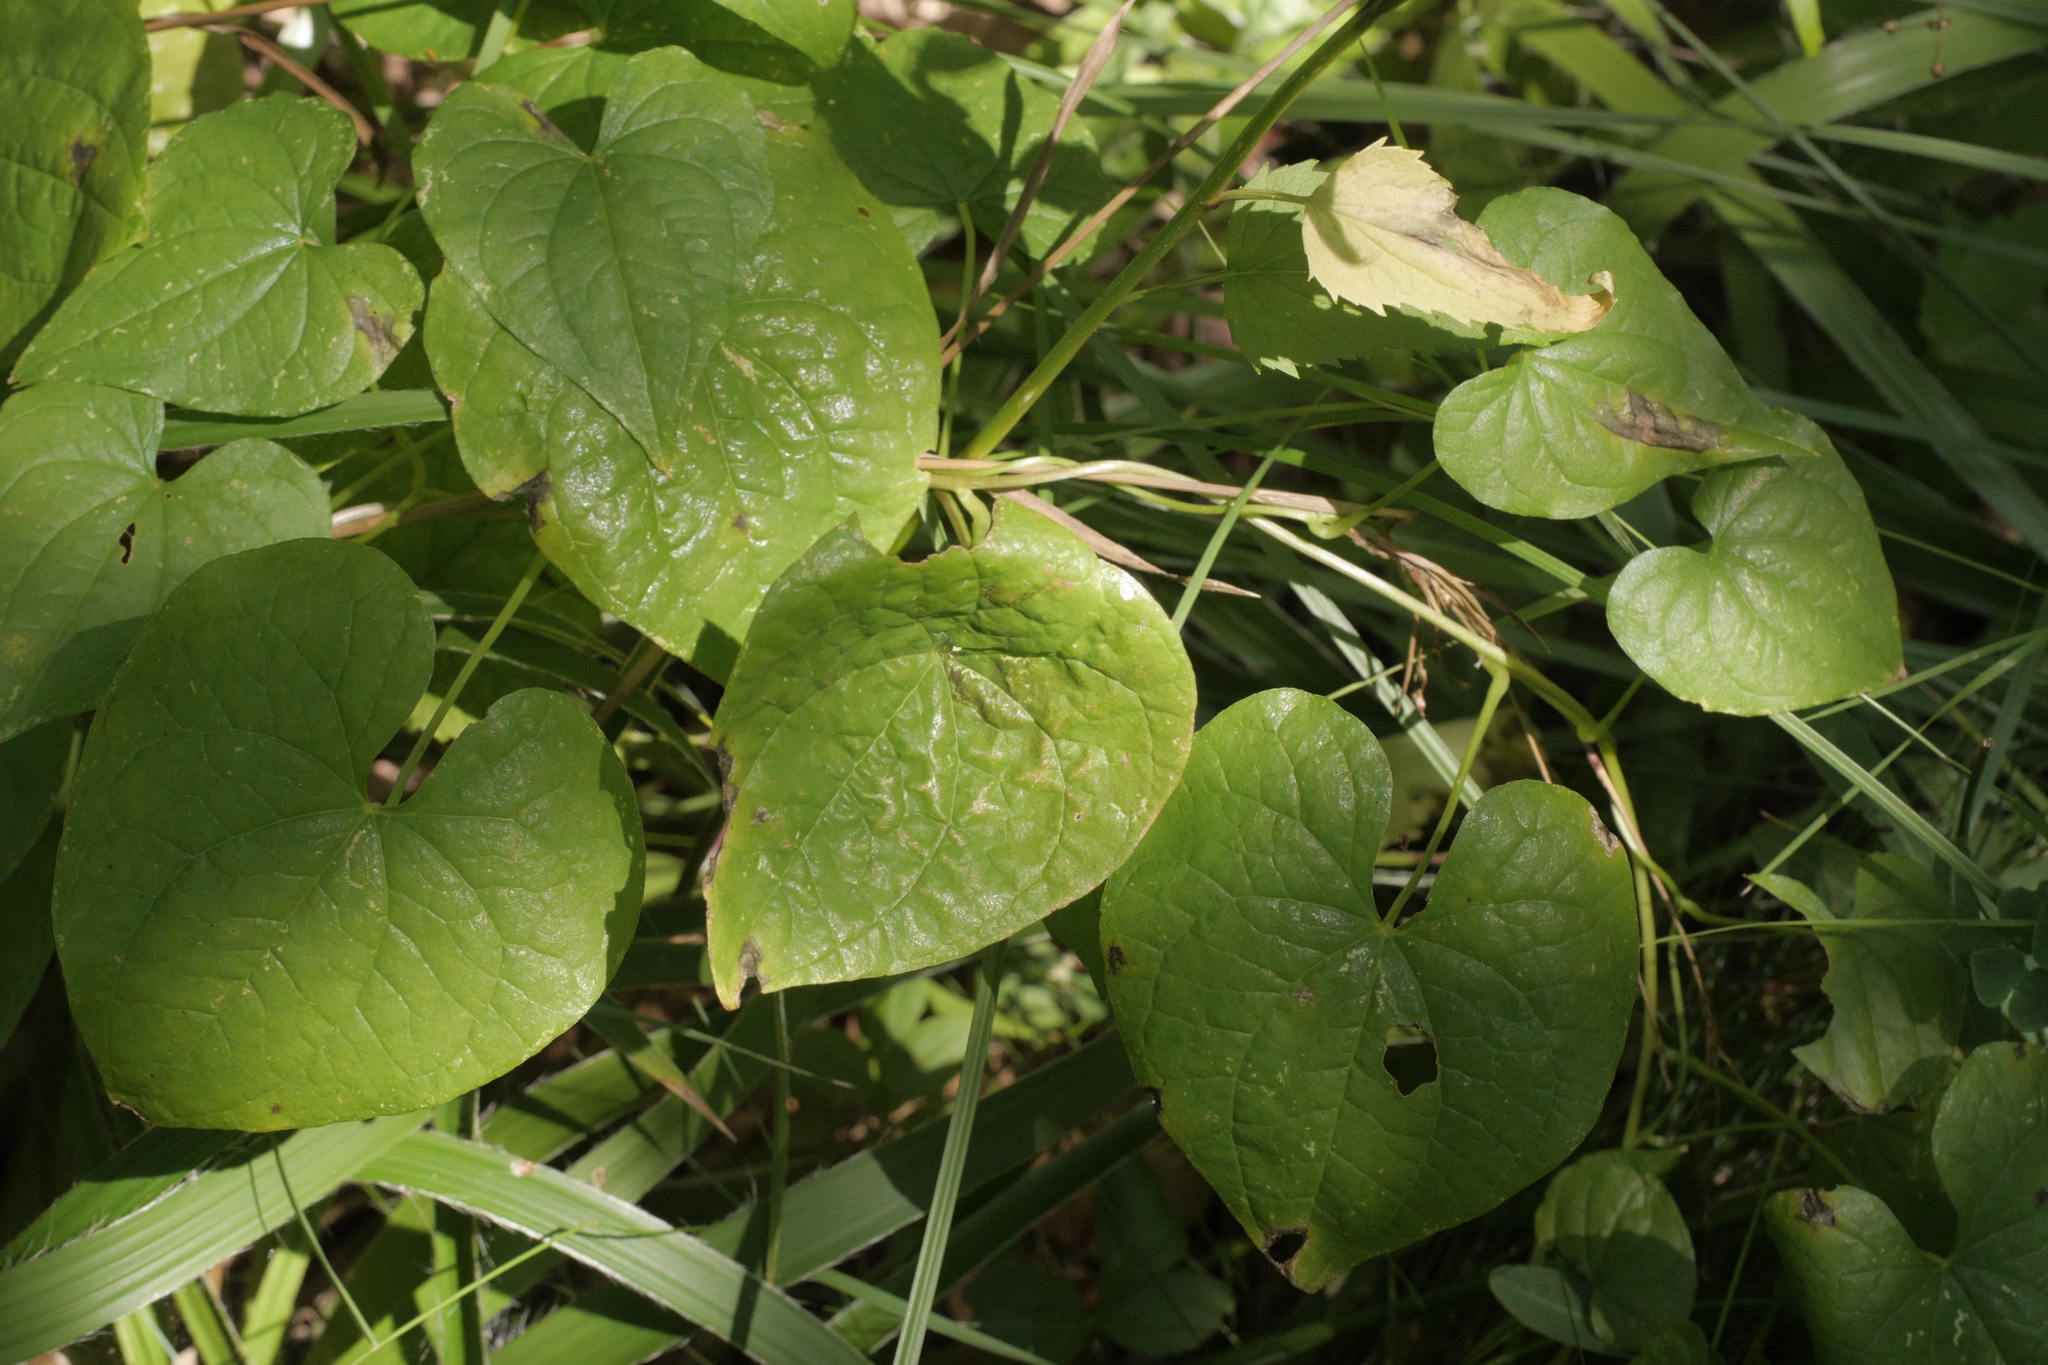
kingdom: Plantae
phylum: Tracheophyta
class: Liliopsida
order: Dioscoreales
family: Dioscoreaceae
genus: Dioscorea
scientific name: Dioscorea communis
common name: Black-bindweed
